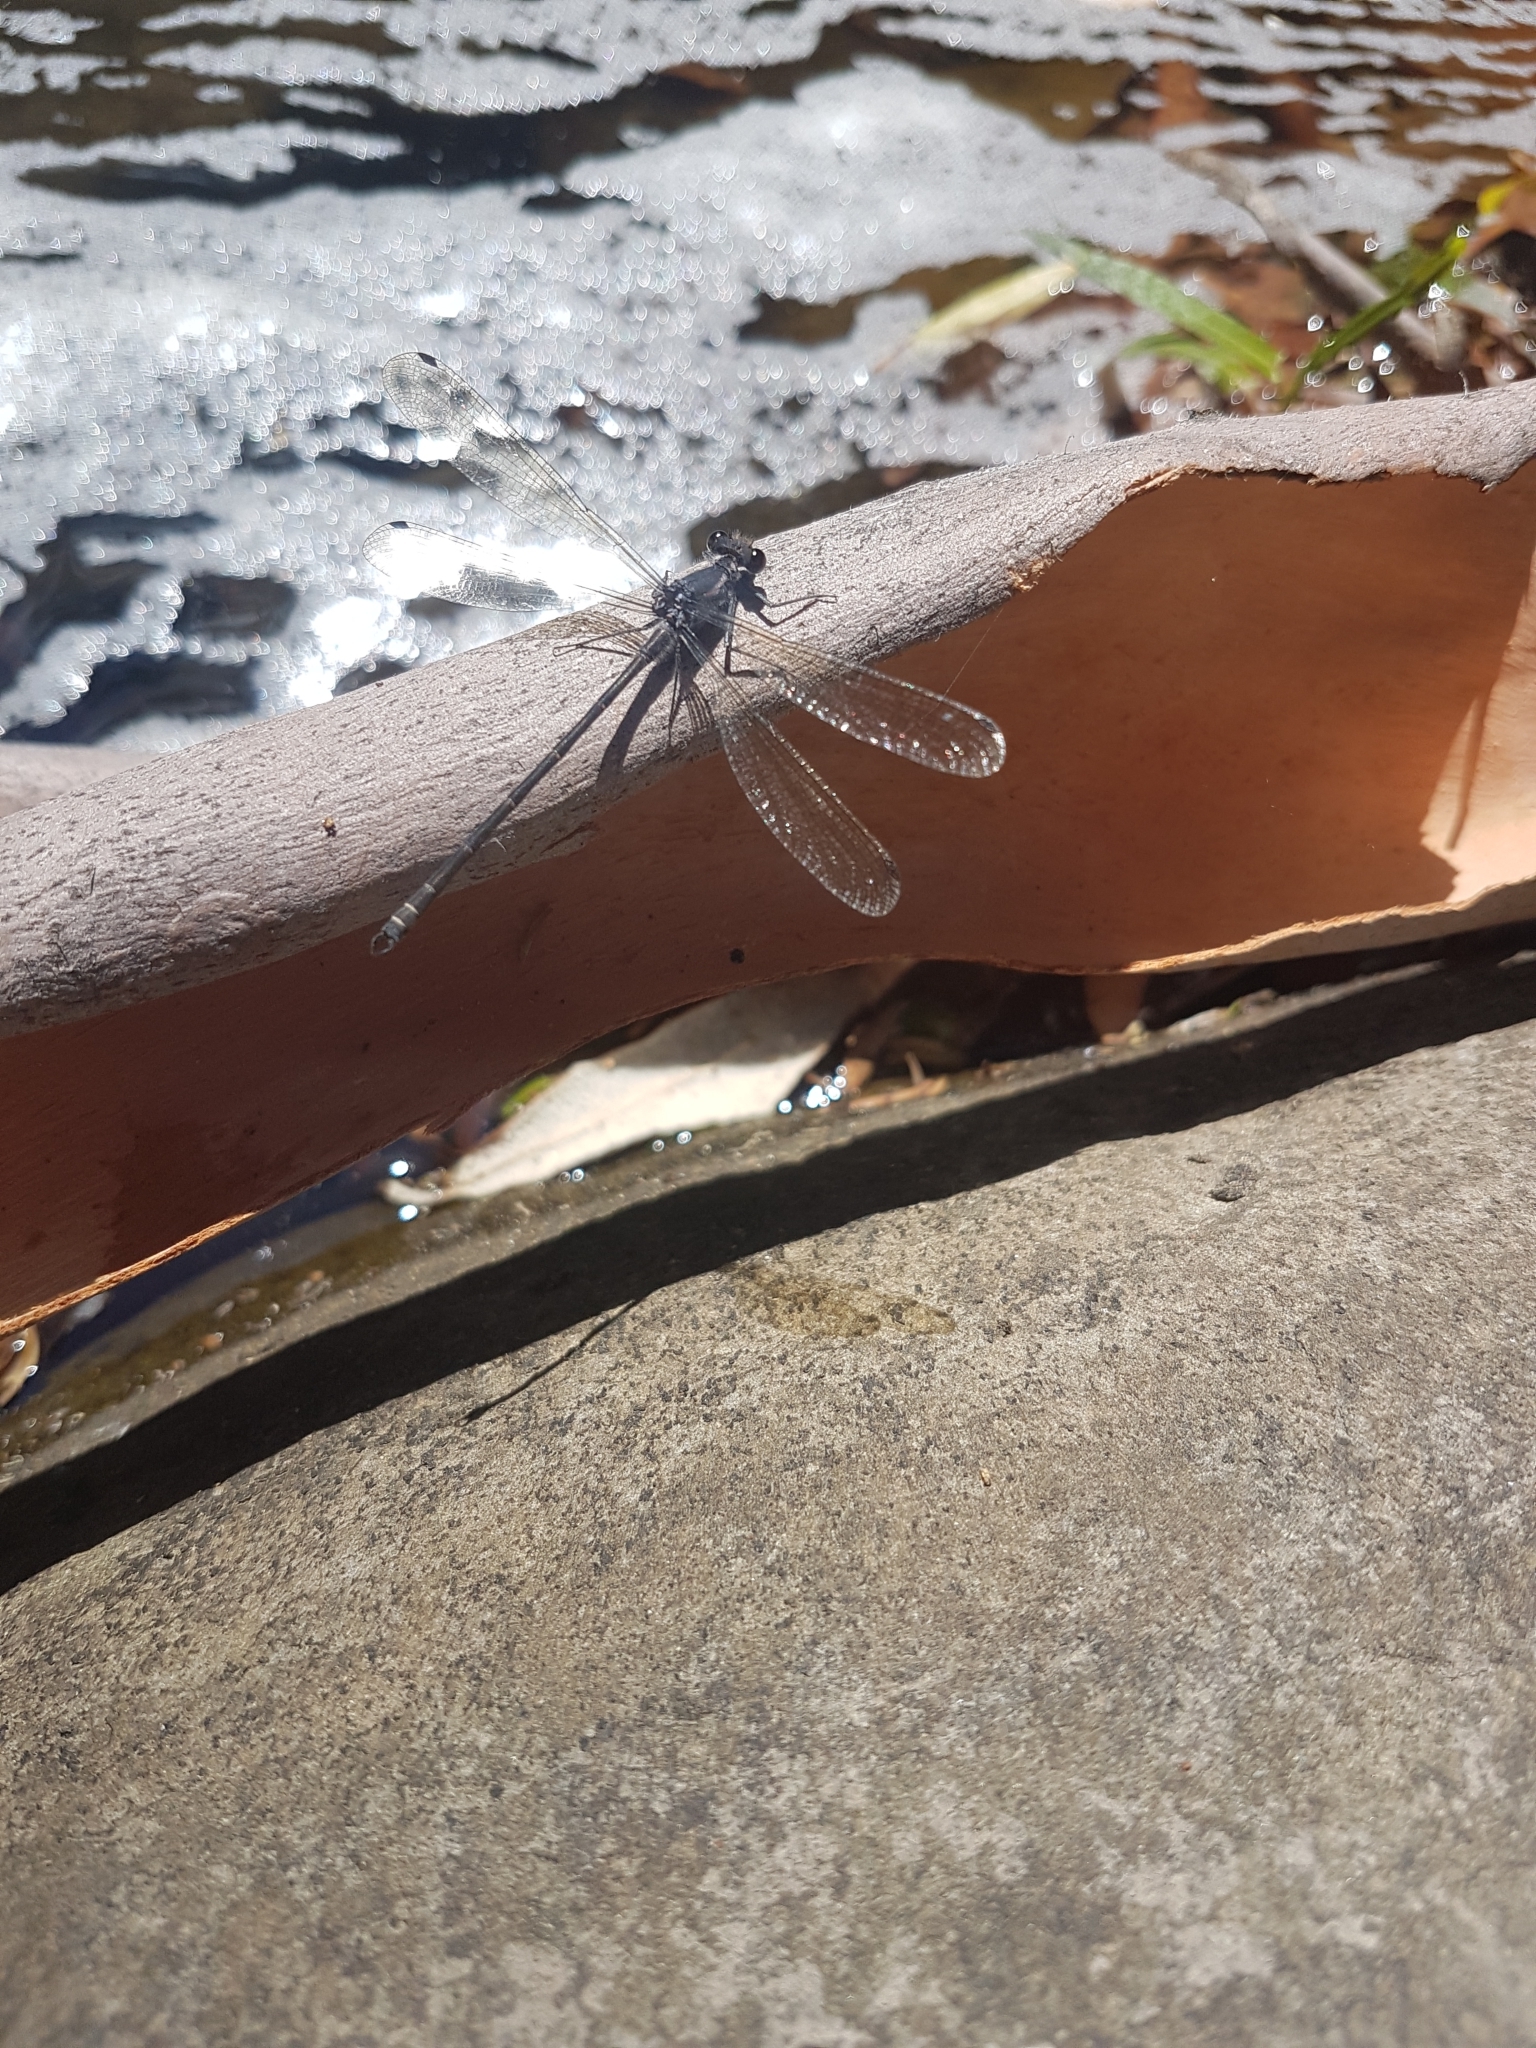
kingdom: Animalia
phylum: Arthropoda
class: Insecta
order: Odonata
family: Argiolestidae
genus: Austroargiolestes
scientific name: Austroargiolestes icteromelas
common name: Common flatwing
